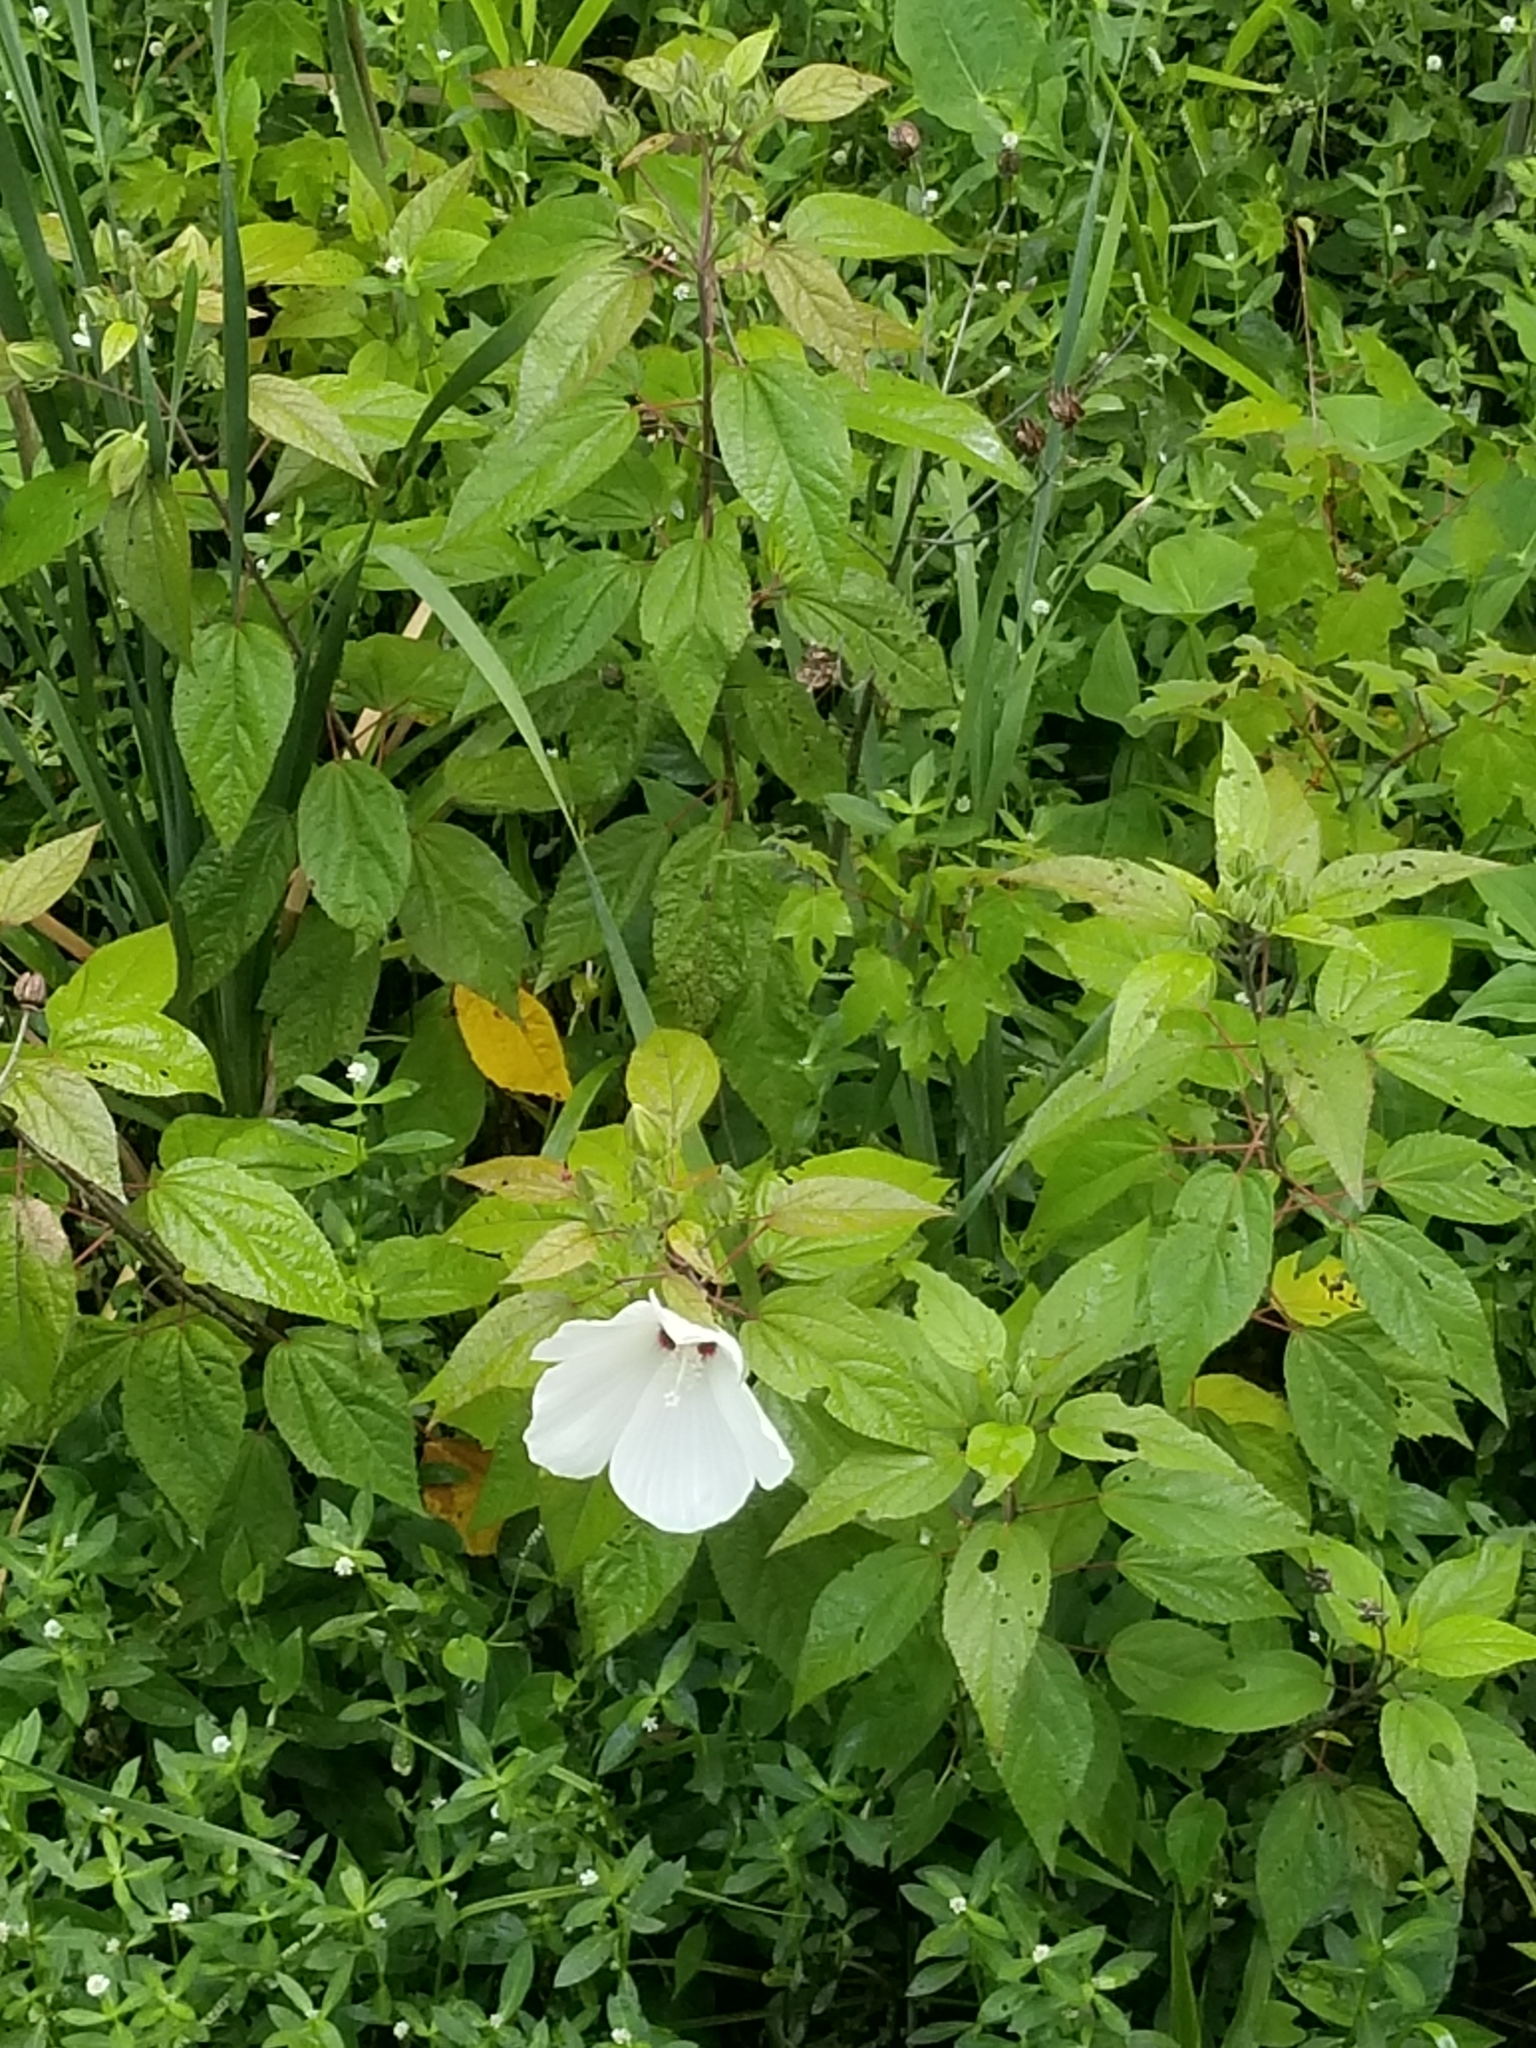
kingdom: Plantae
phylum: Tracheophyta
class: Magnoliopsida
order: Malvales
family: Malvaceae
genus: Hibiscus
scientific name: Hibiscus moscheutos
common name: Common rose-mallow
